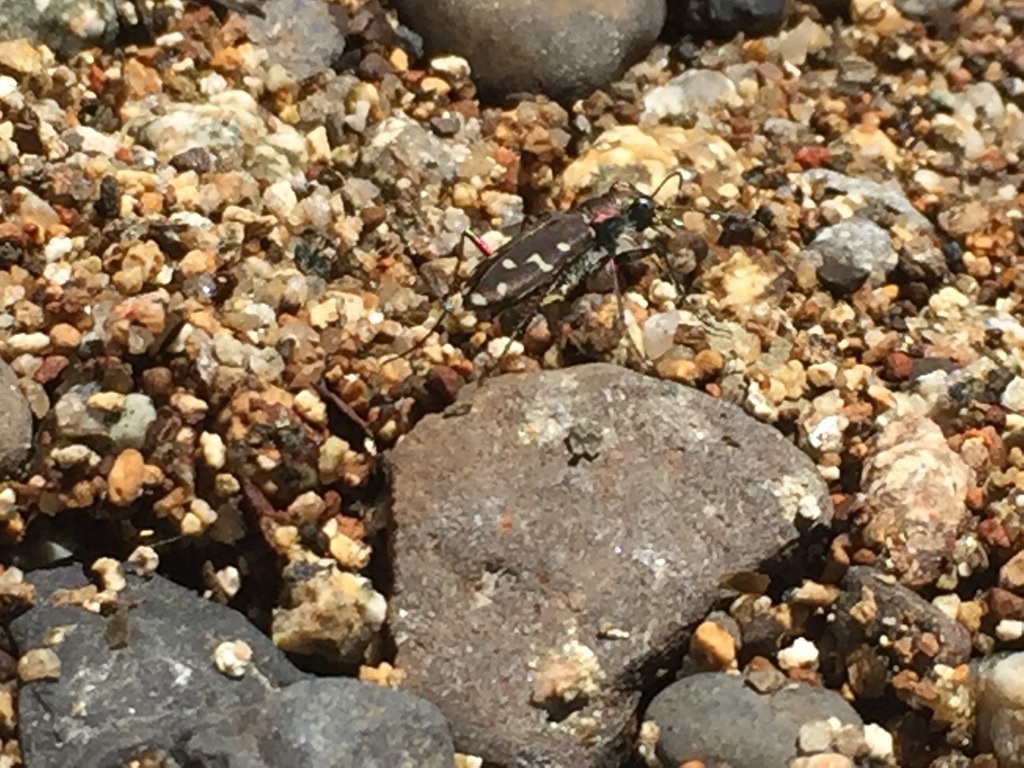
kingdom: Animalia
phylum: Arthropoda
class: Insecta
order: Coleoptera
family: Carabidae
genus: Cicindela
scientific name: Cicindela oregona
